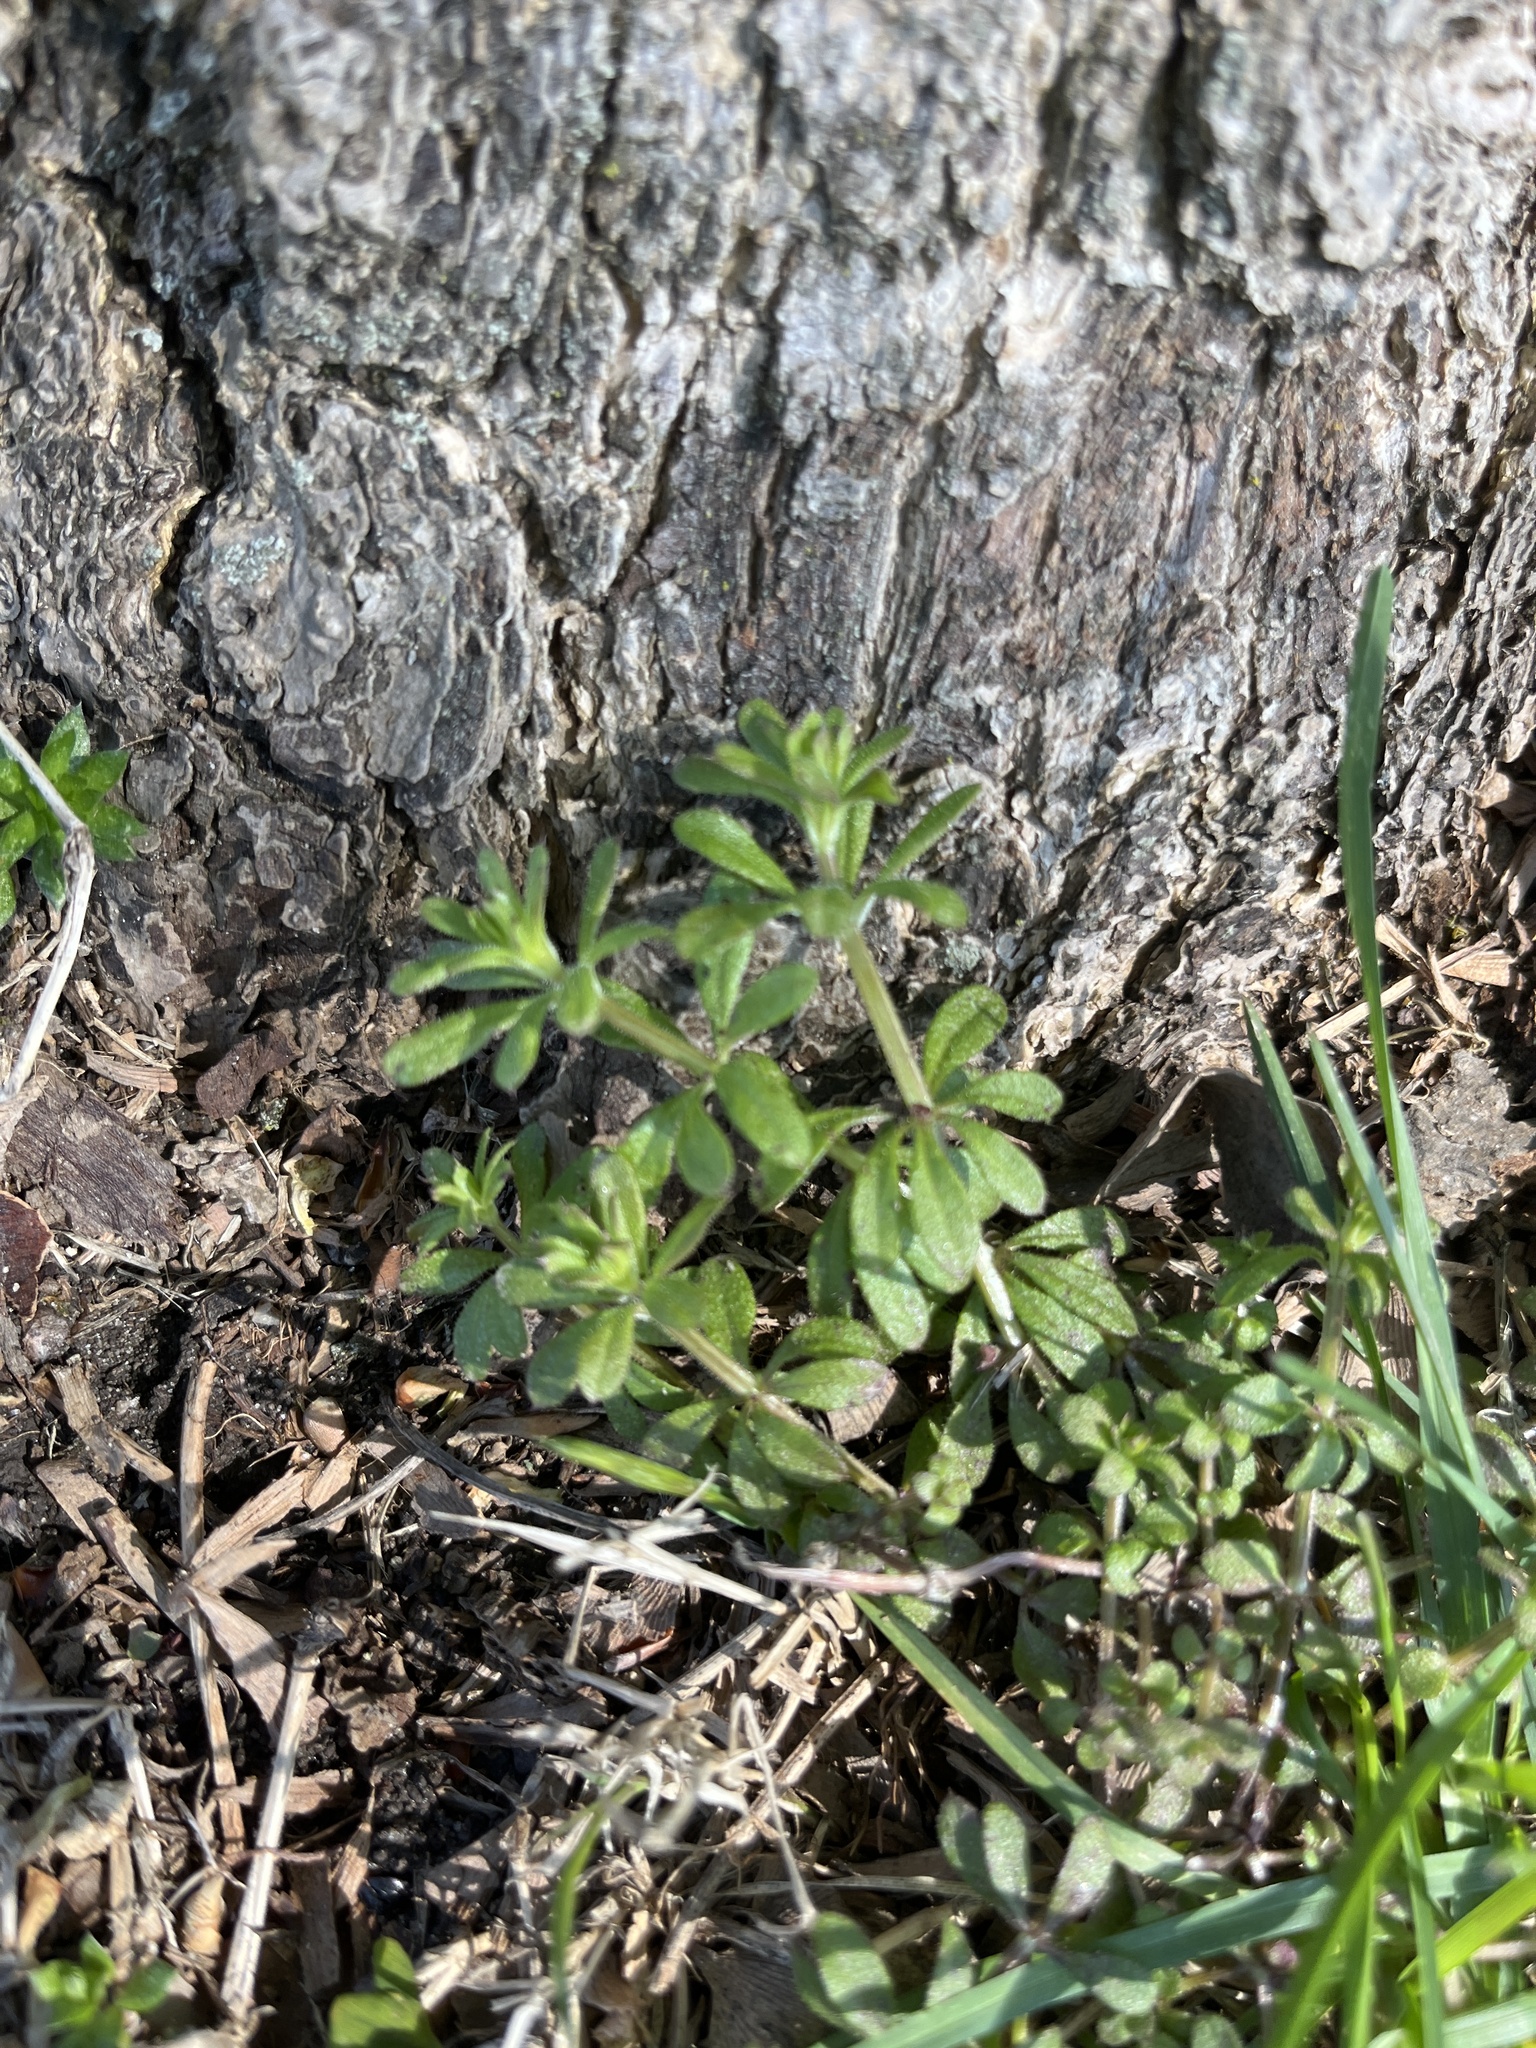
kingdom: Plantae
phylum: Tracheophyta
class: Magnoliopsida
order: Gentianales
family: Rubiaceae
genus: Galium
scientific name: Galium aparine
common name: Cleavers
